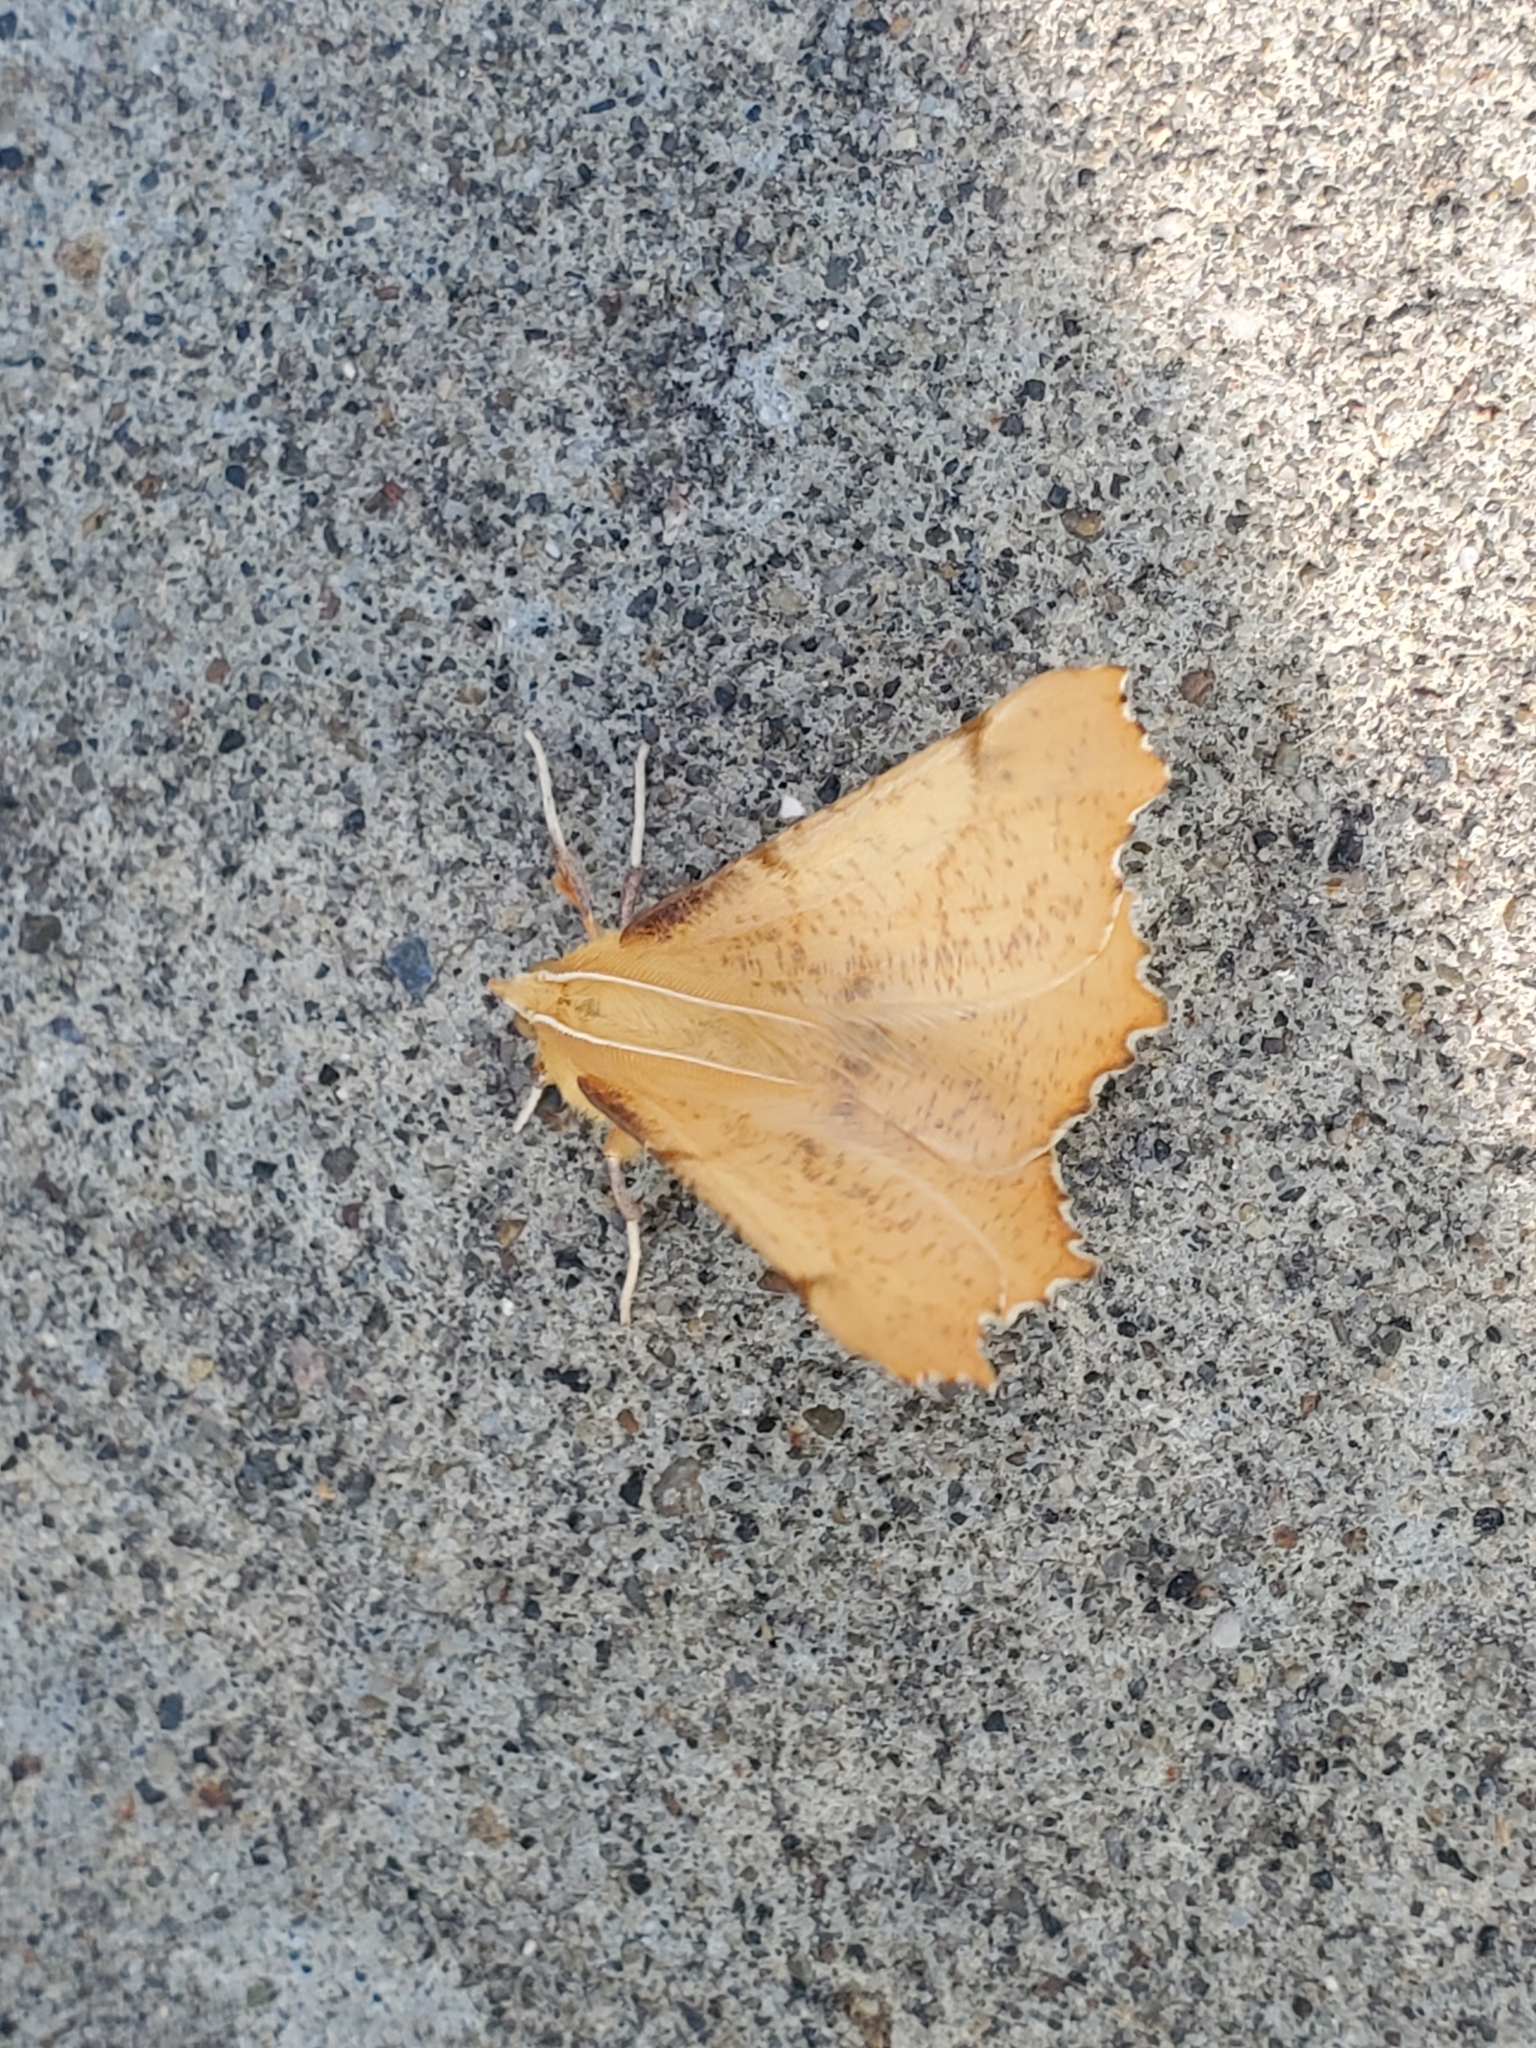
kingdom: Animalia
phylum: Arthropoda
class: Insecta
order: Lepidoptera
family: Geometridae
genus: Ennomos
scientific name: Ennomos magnaria
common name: Maple spanworm
